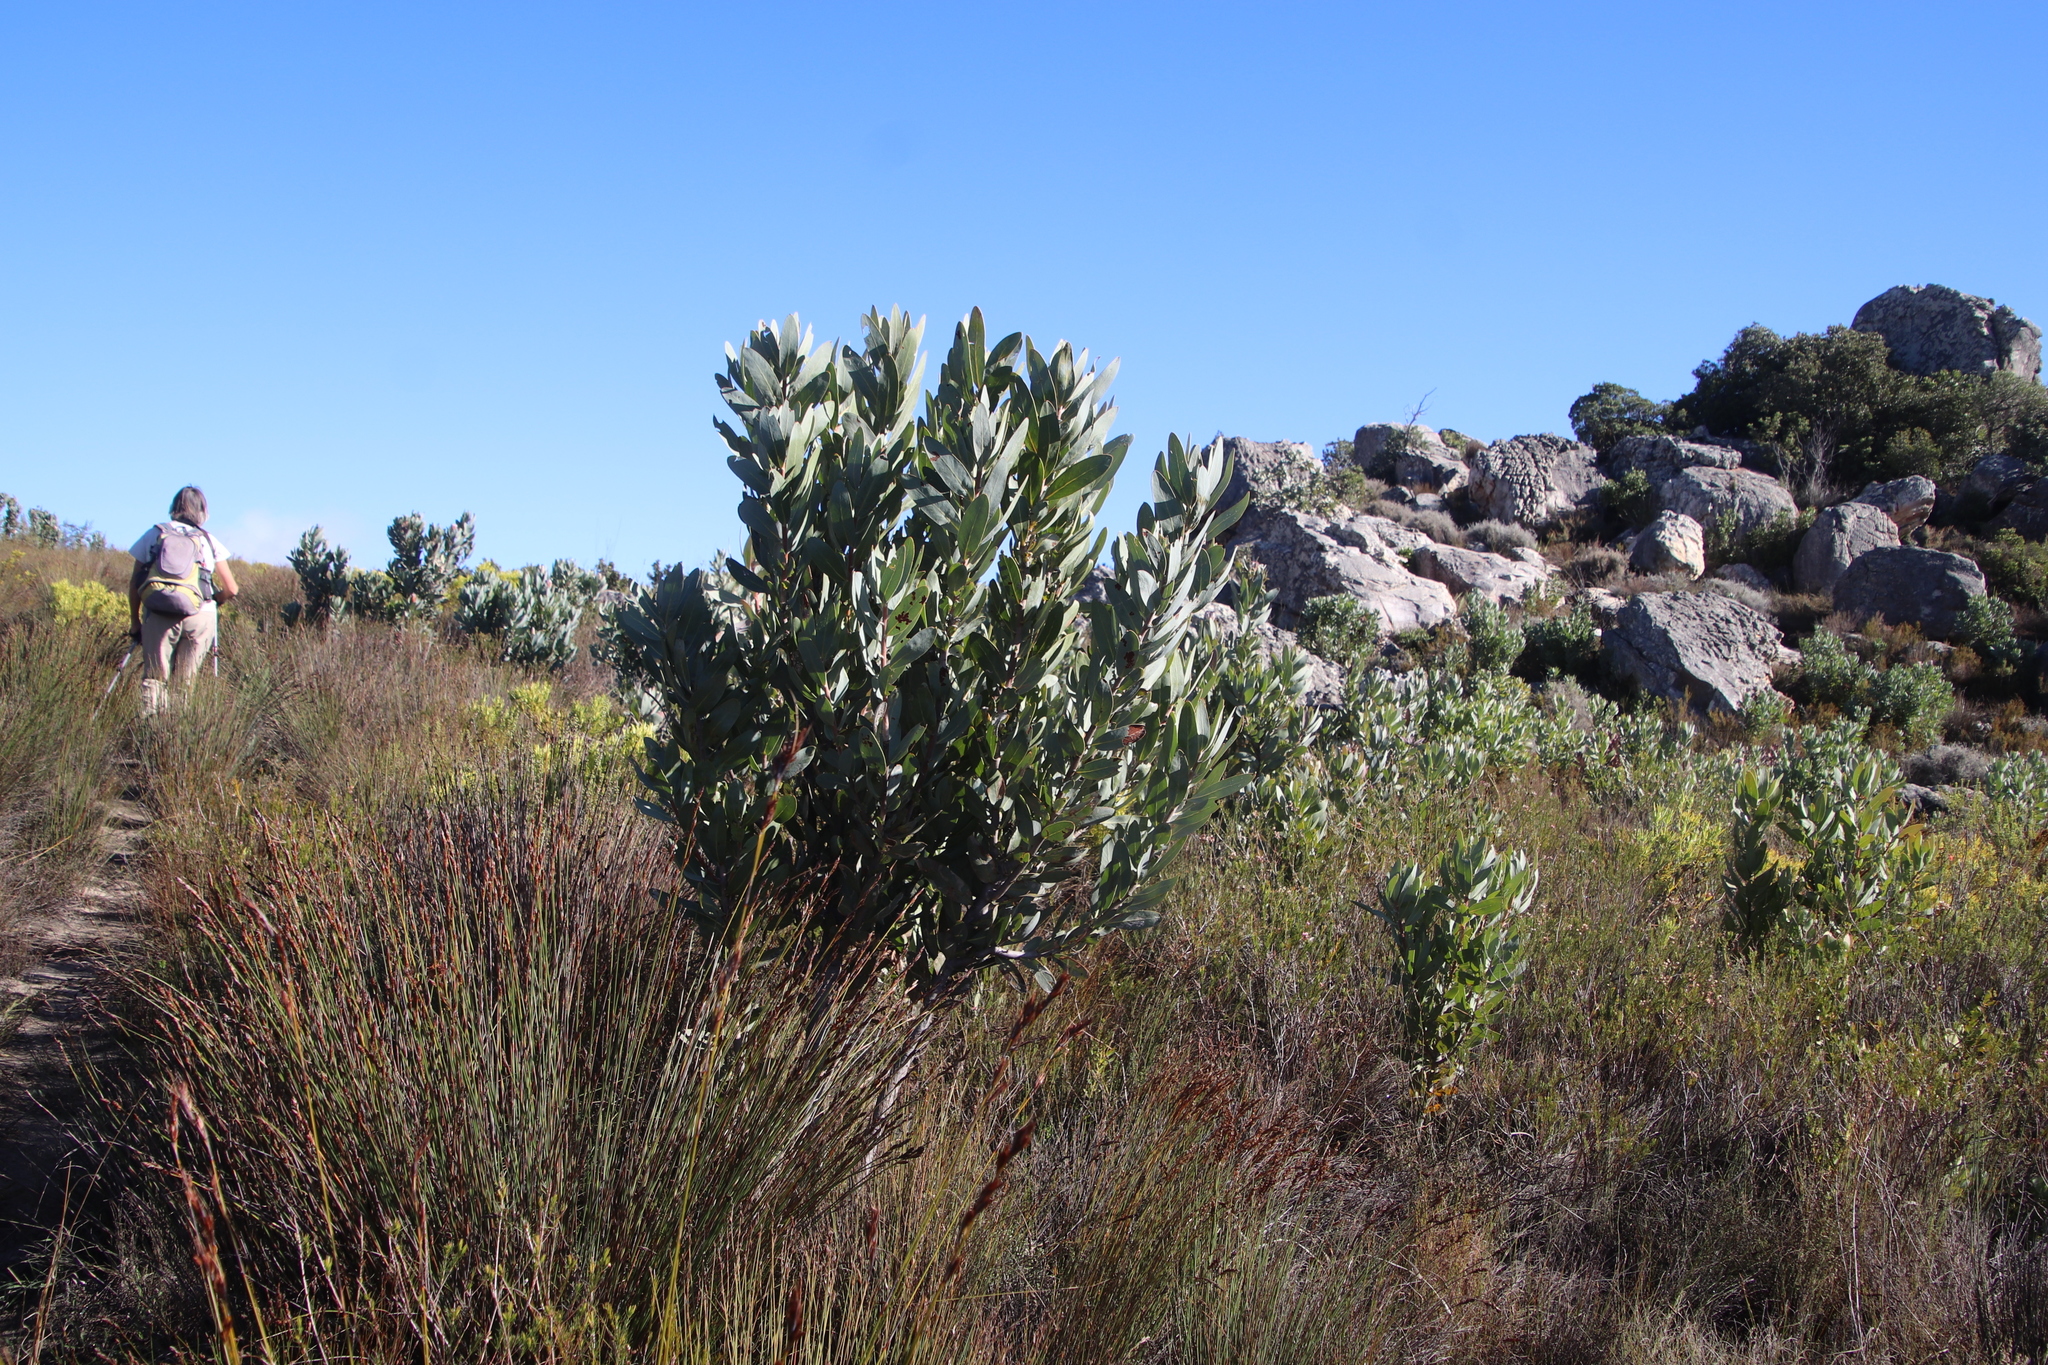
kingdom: Plantae
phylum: Tracheophyta
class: Magnoliopsida
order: Proteales
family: Proteaceae
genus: Protea
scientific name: Protea laurifolia
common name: Grey-leaf sugarbsh
